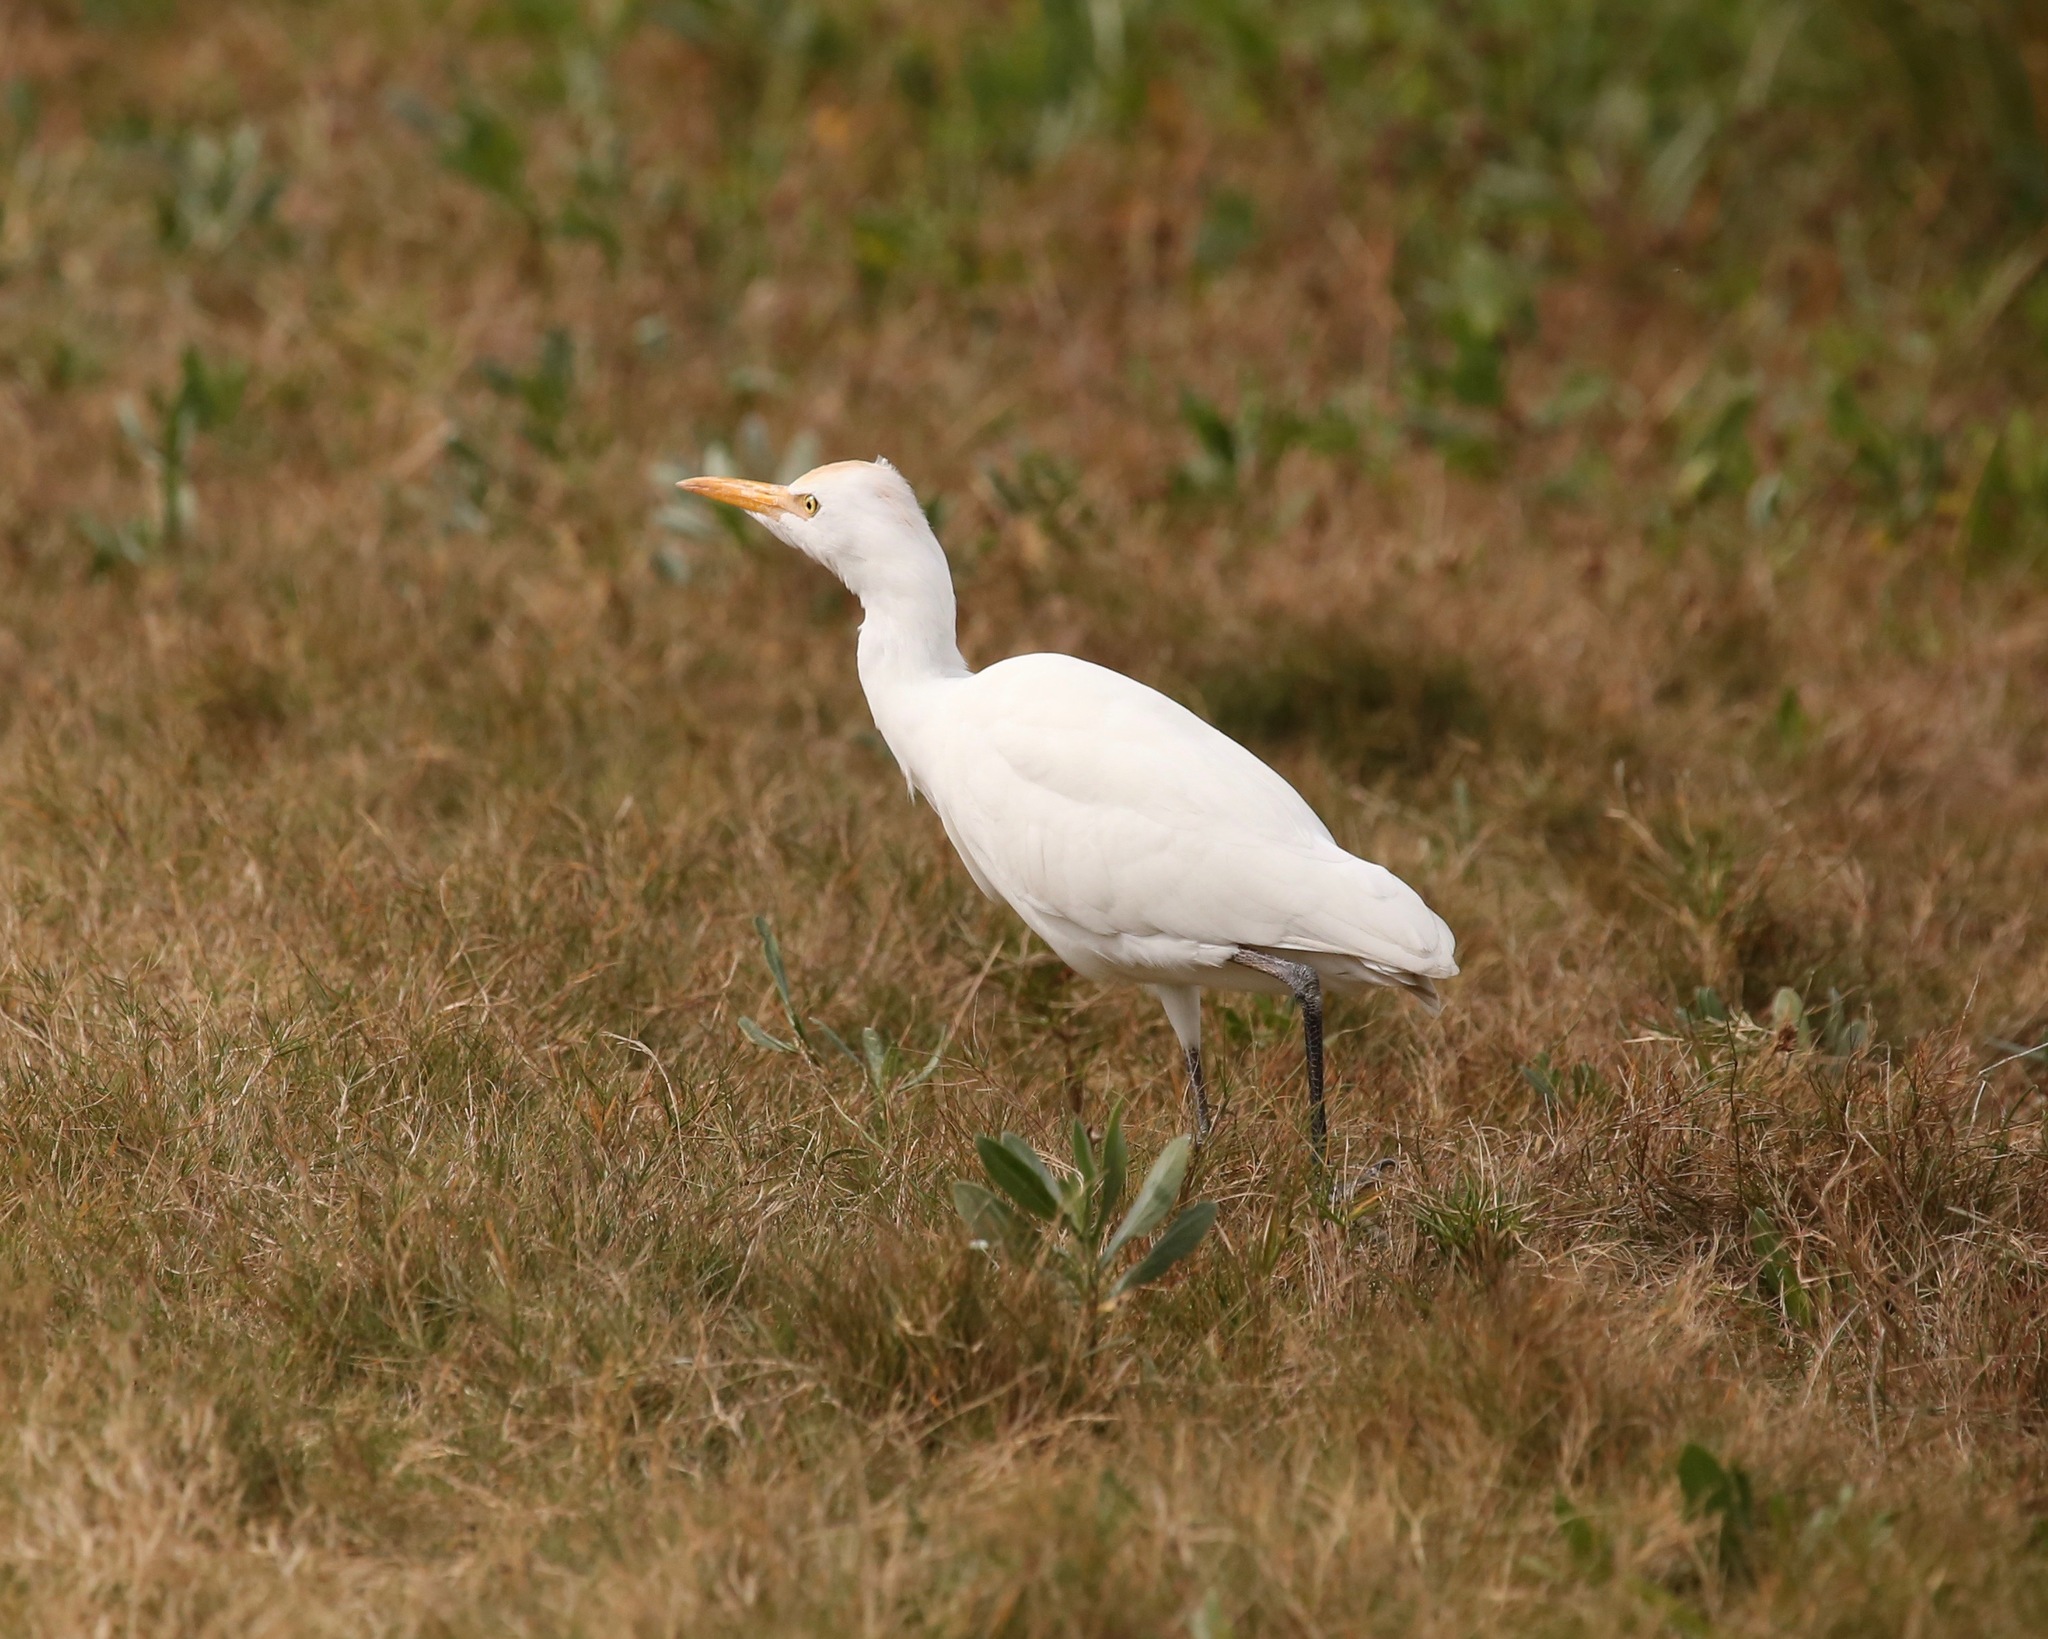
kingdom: Animalia
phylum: Chordata
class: Aves
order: Pelecaniformes
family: Ardeidae
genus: Bubulcus
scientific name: Bubulcus ibis
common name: Cattle egret
